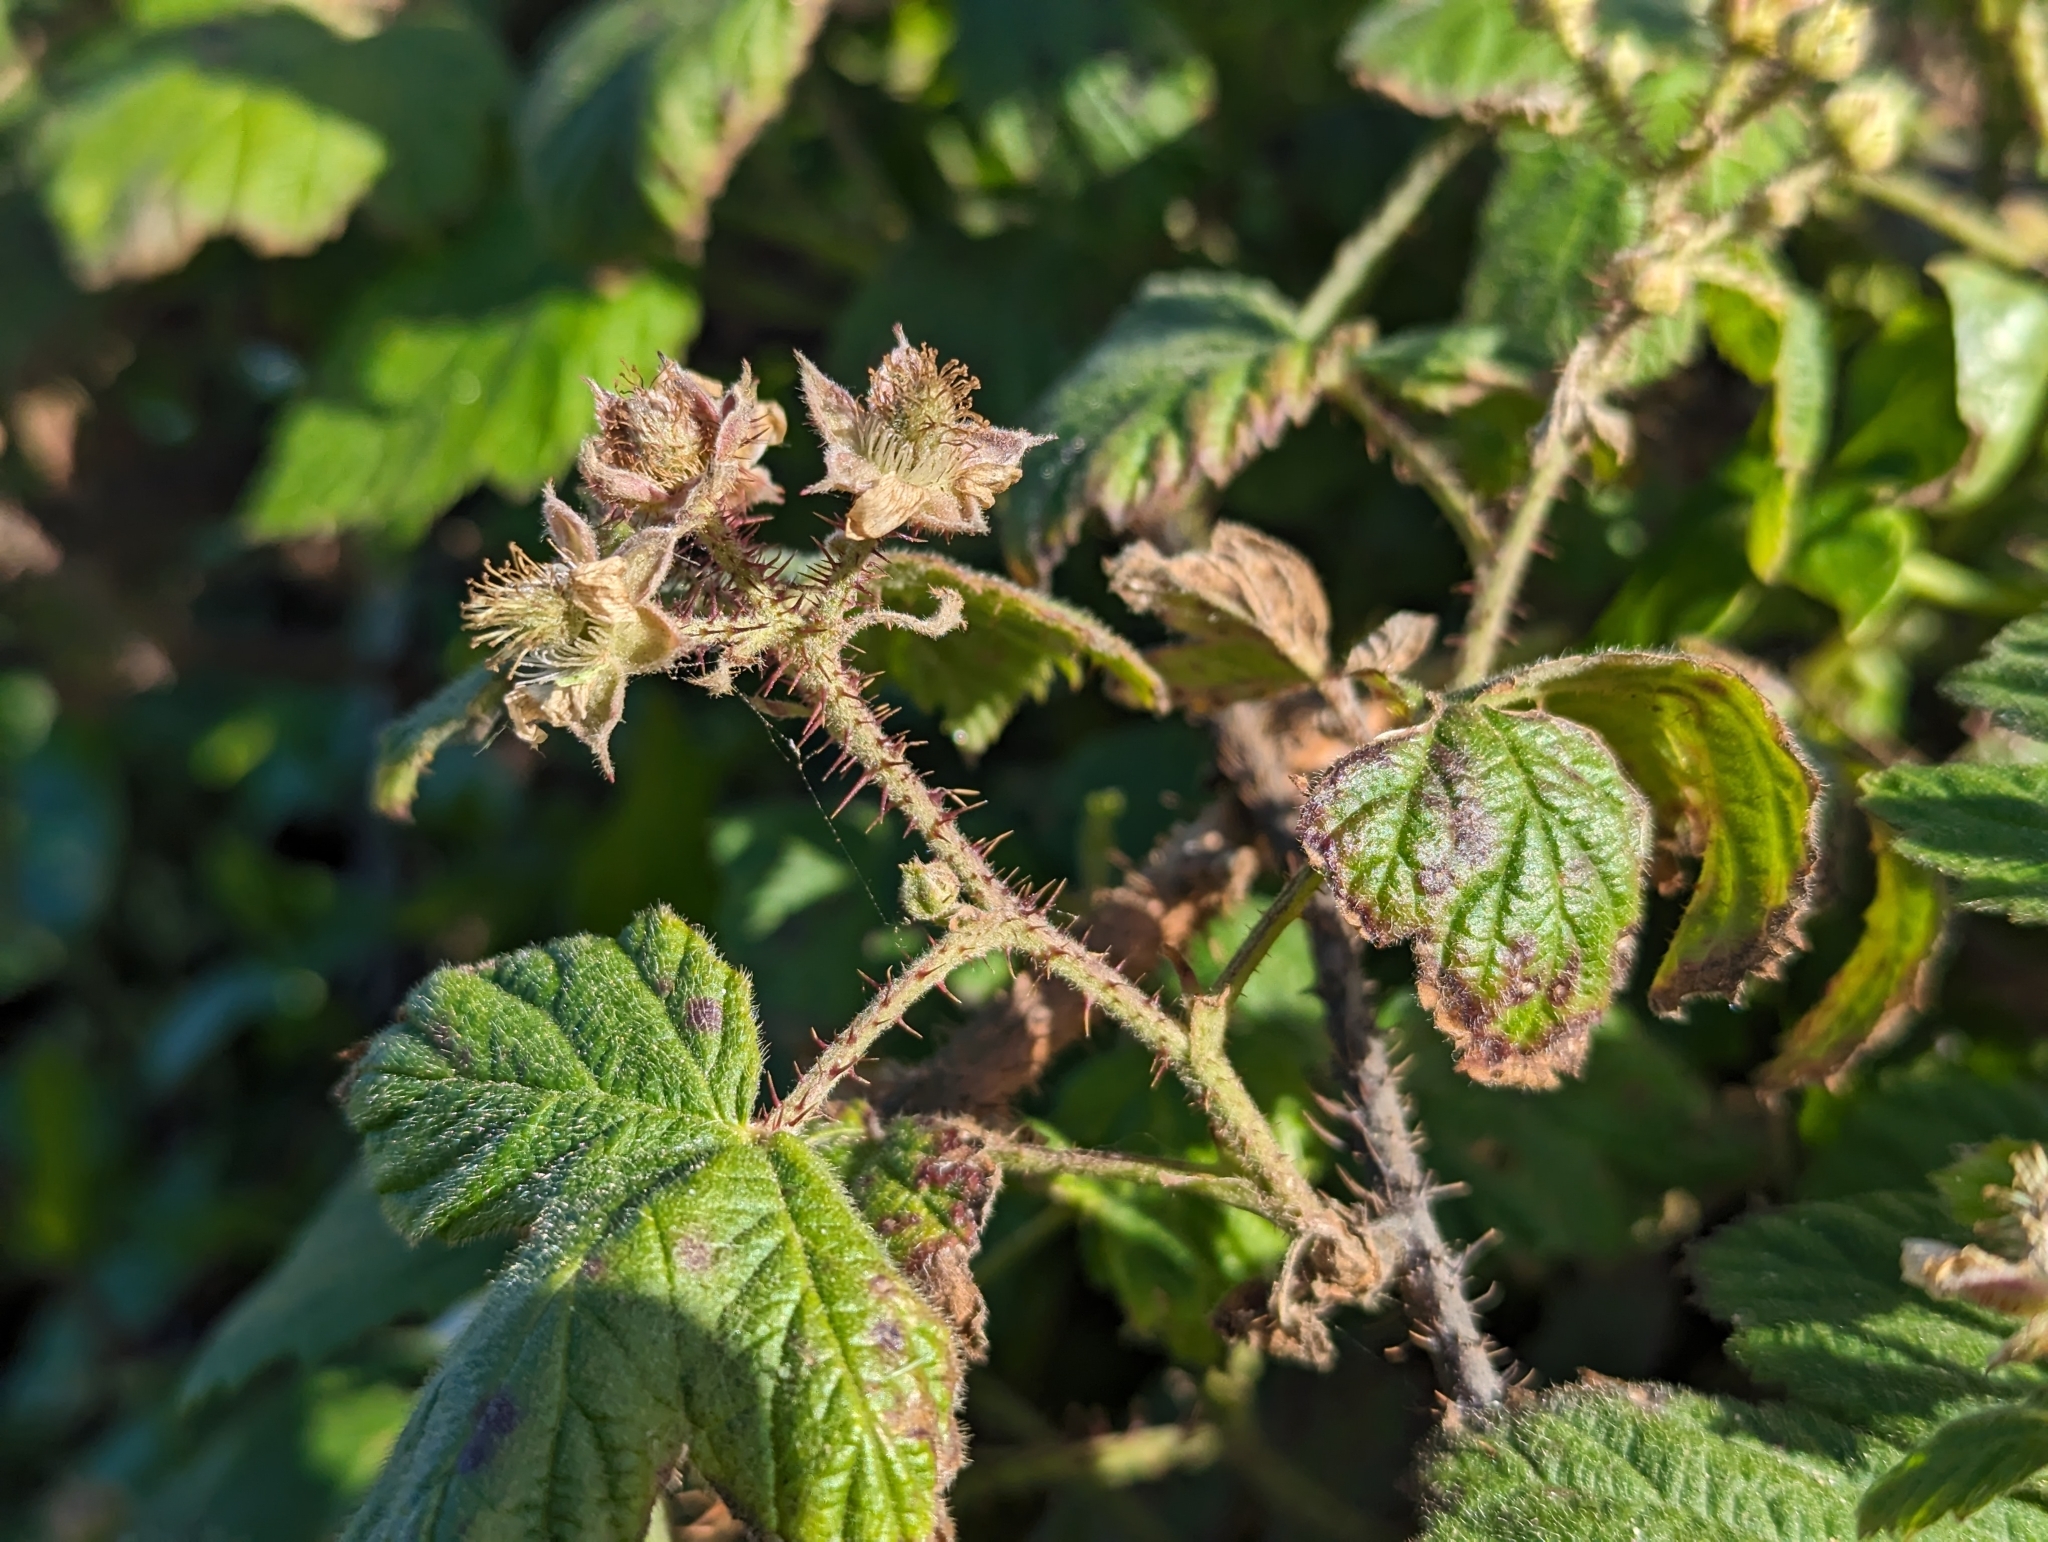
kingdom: Plantae
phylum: Tracheophyta
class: Magnoliopsida
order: Rosales
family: Rosaceae
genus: Rubus
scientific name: Rubus ursinus
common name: Pacific blackberry
